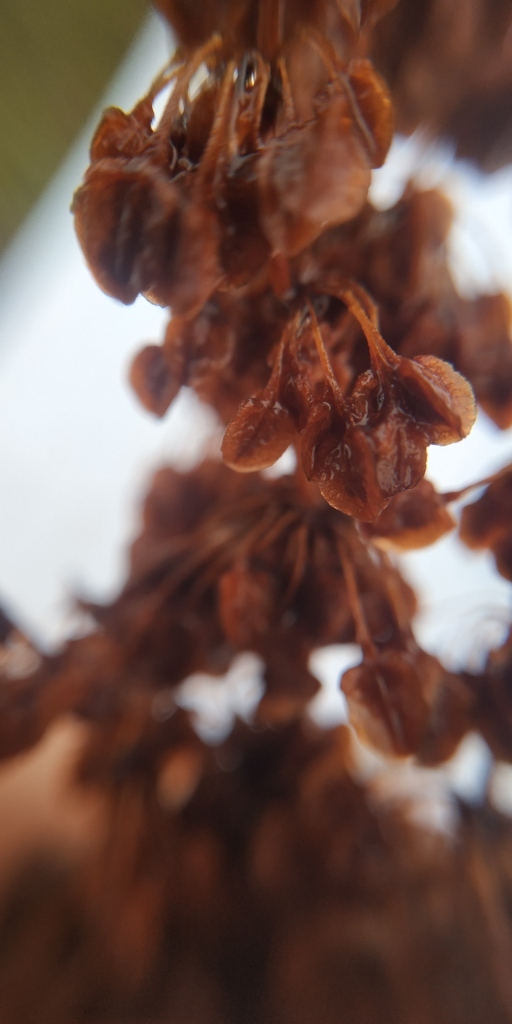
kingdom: Plantae
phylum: Tracheophyta
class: Magnoliopsida
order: Caryophyllales
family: Polygonaceae
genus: Rumex
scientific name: Rumex pseudonatronatus
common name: Field dock
